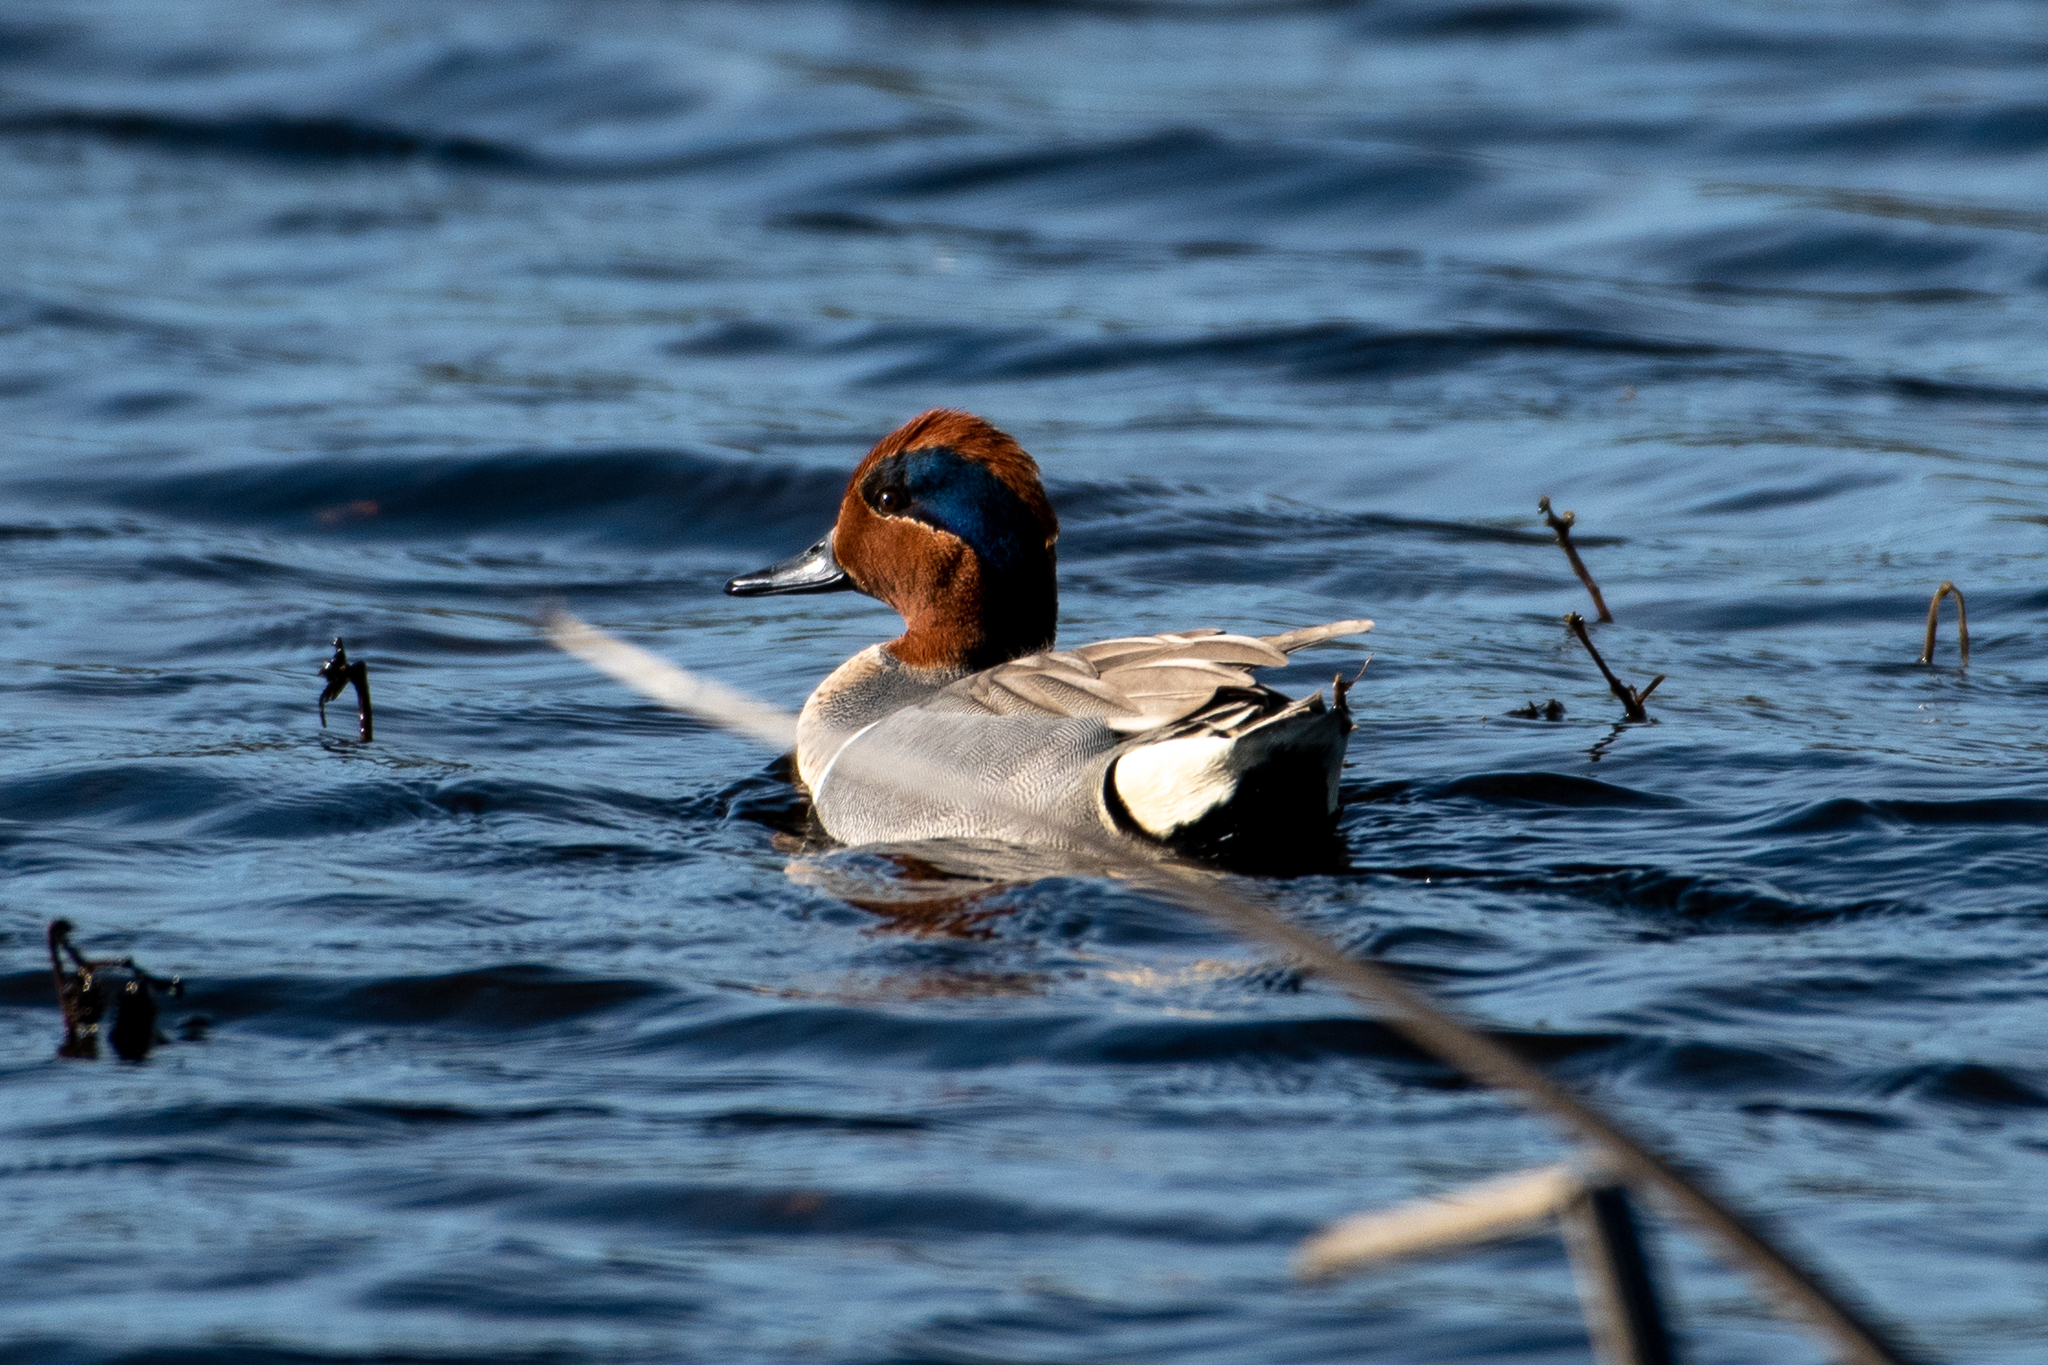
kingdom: Animalia
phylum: Chordata
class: Aves
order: Anseriformes
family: Anatidae
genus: Anas
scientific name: Anas crecca
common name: Eurasian teal
